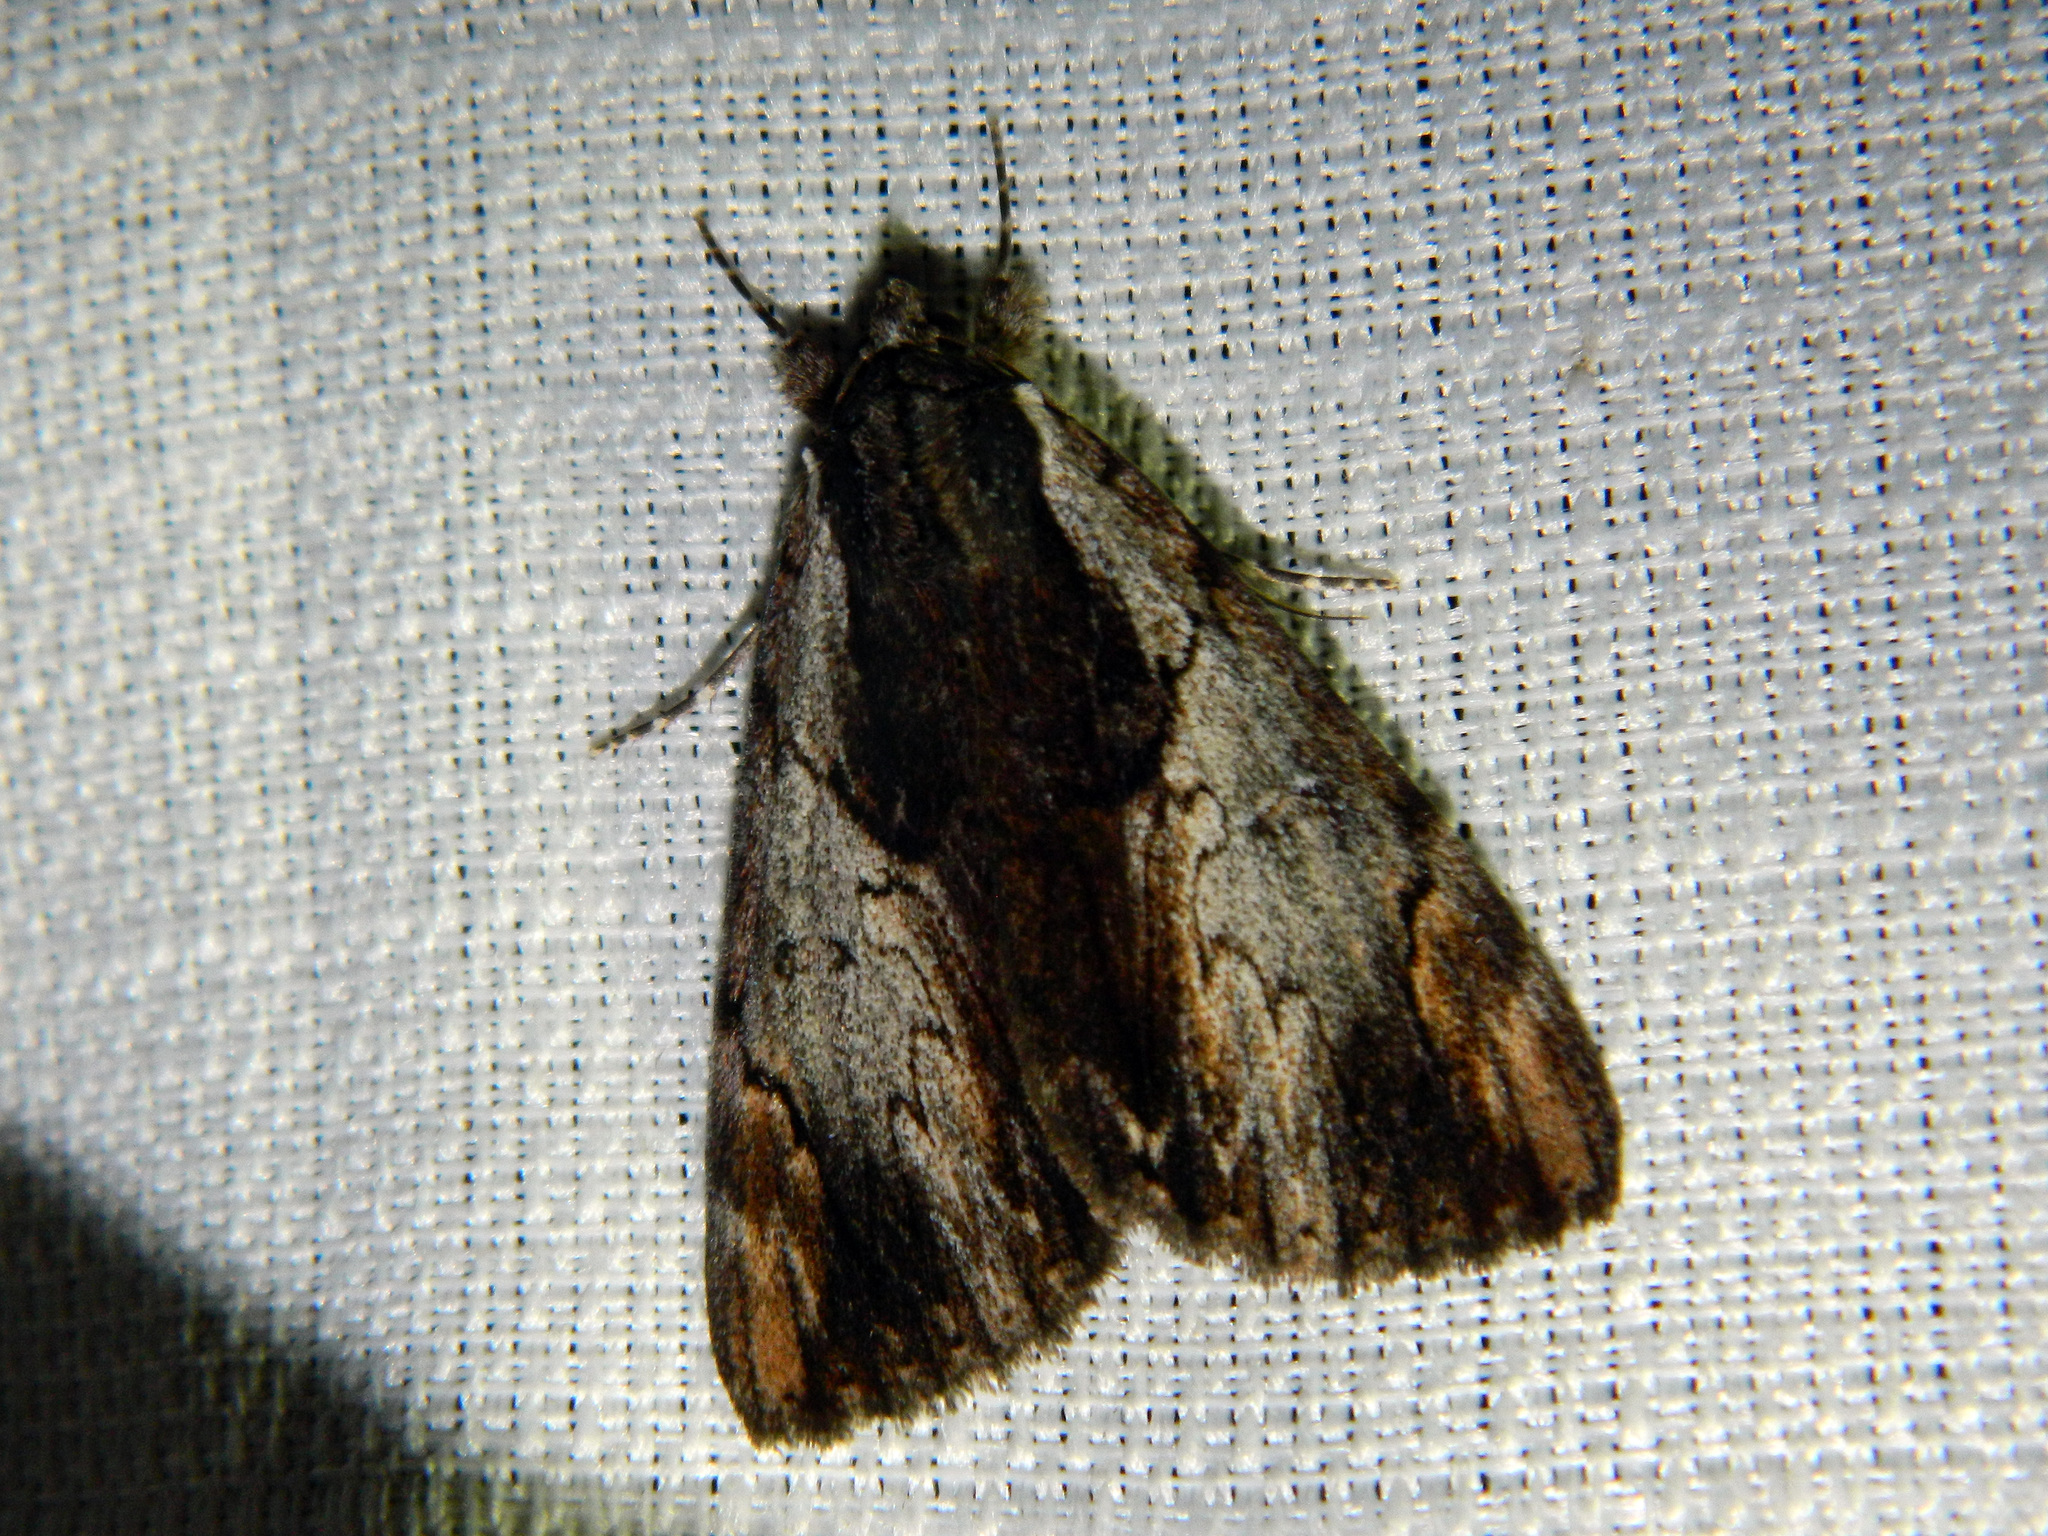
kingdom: Animalia
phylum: Arthropoda
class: Insecta
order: Lepidoptera
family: Erebidae
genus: Catocala
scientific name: Catocala ultronia
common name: Ultronia underwing
